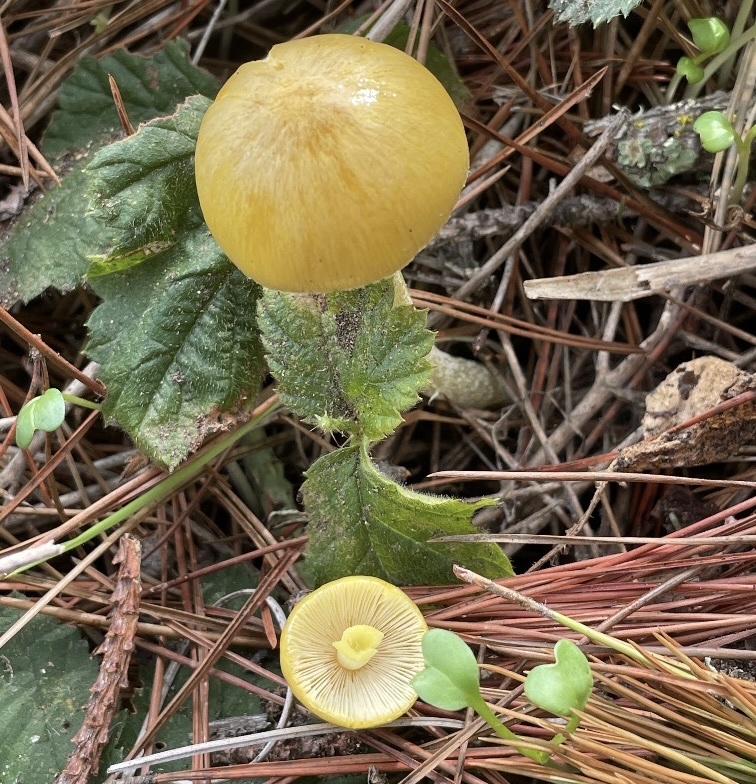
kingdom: Fungi
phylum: Basidiomycota
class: Agaricomycetes
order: Agaricales
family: Bolbitiaceae
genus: Bolbitius
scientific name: Bolbitius titubans
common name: Yellow fieldcap
